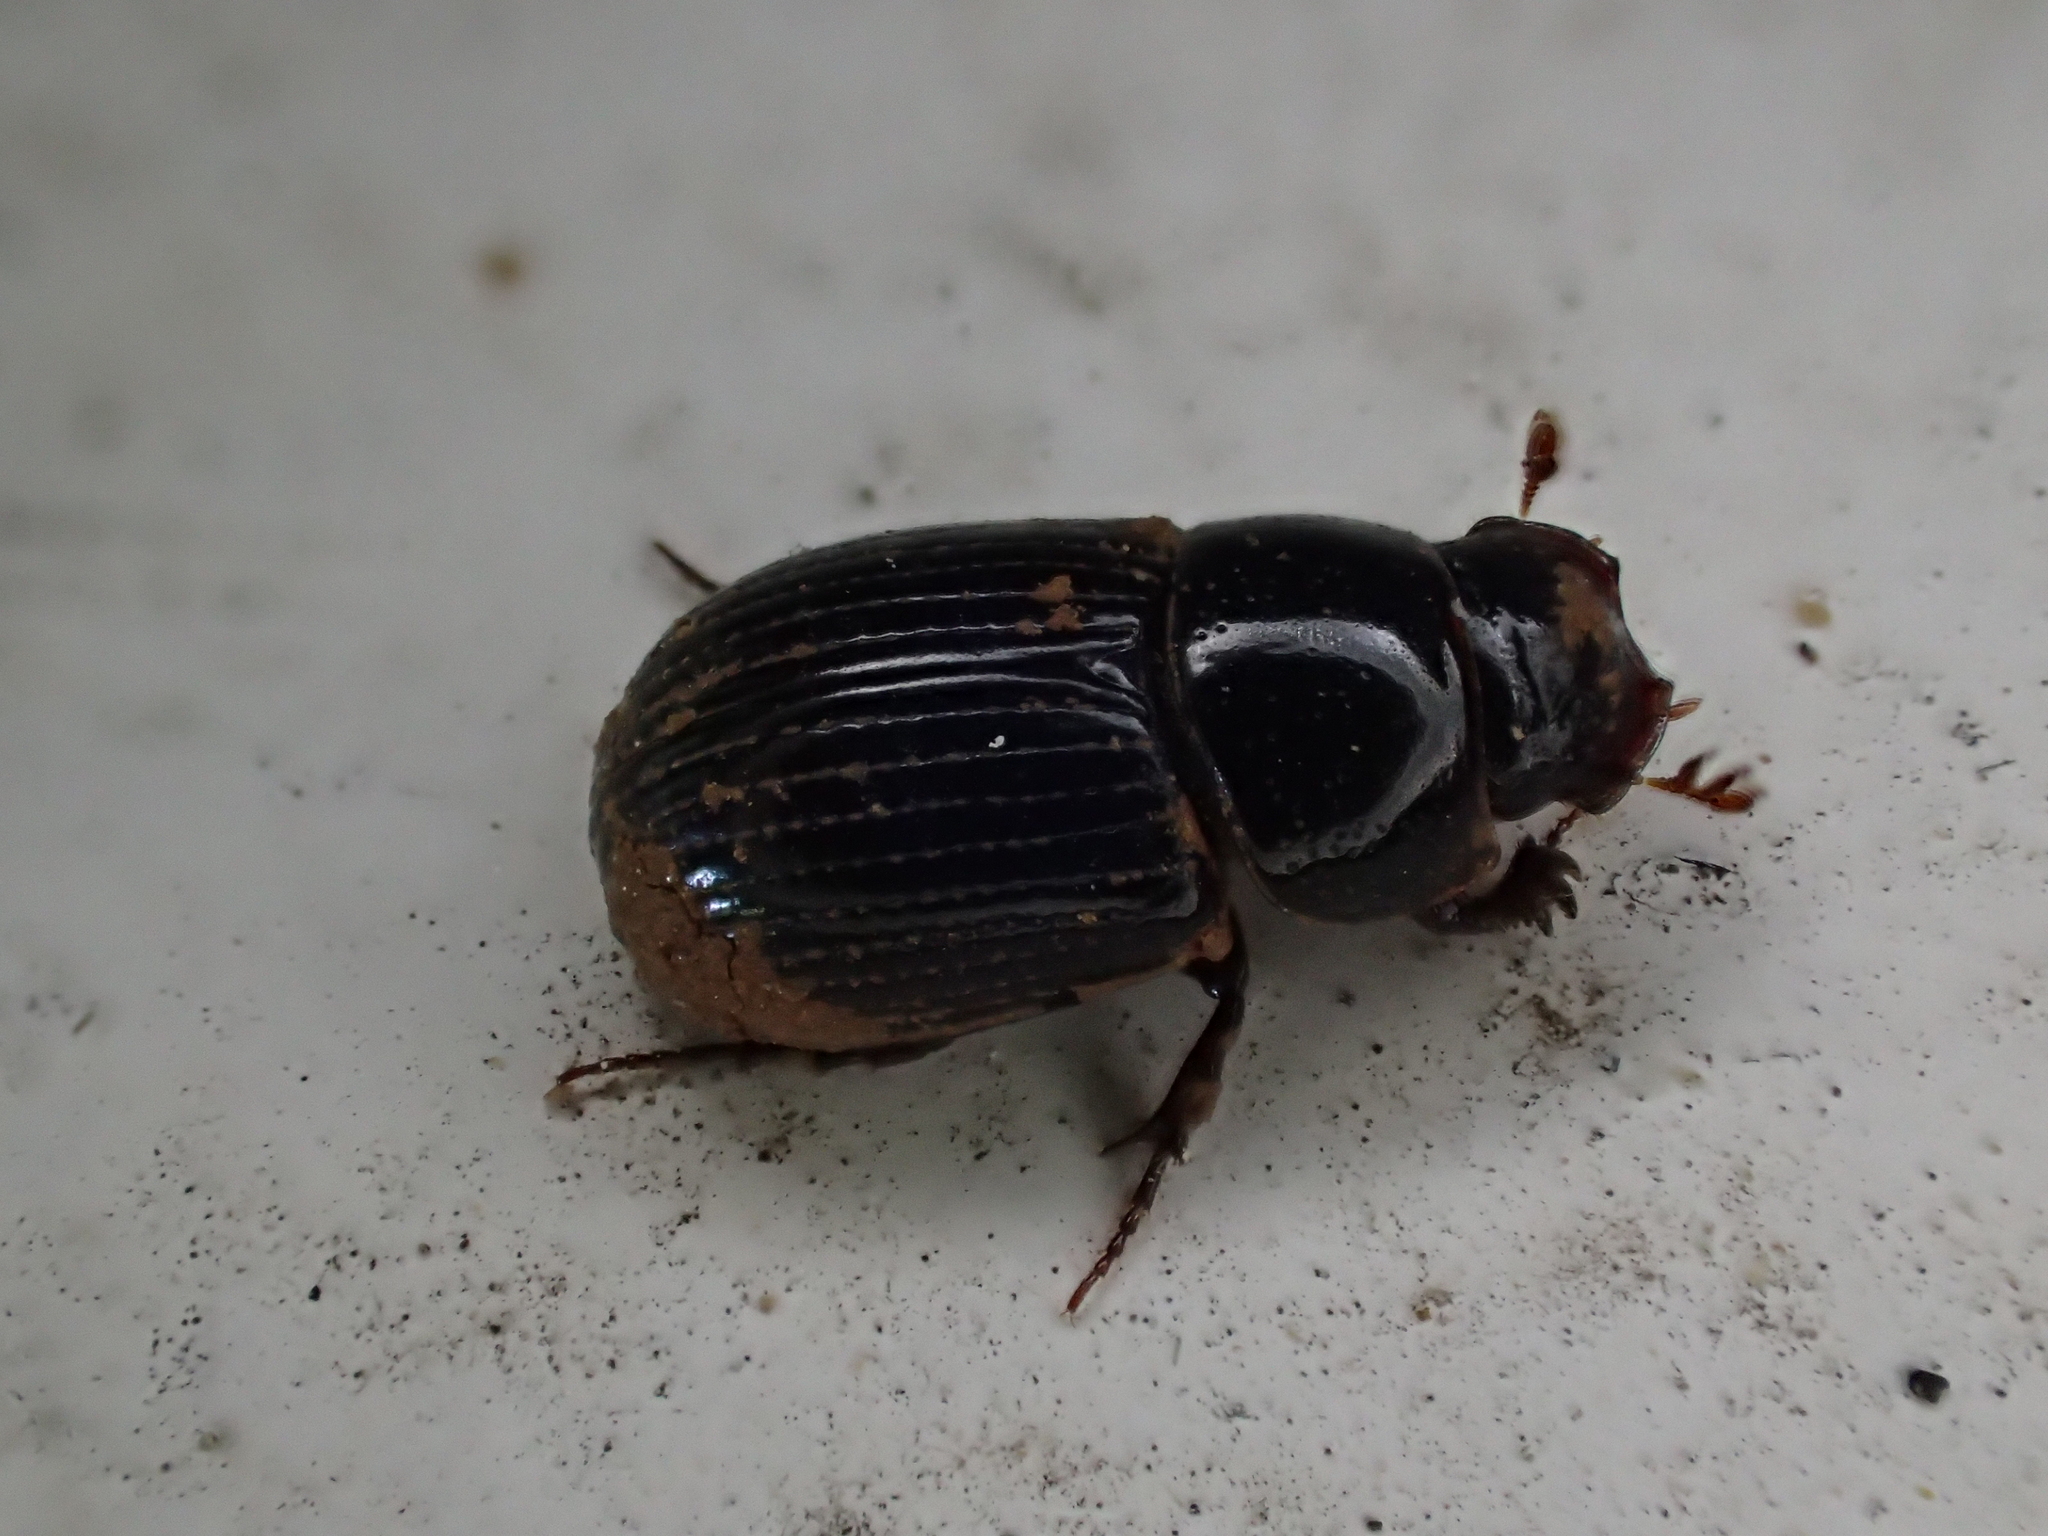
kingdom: Animalia
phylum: Arthropoda
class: Insecta
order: Coleoptera
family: Scarabaeidae
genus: Ammoecius
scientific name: Ammoecius elevatus
